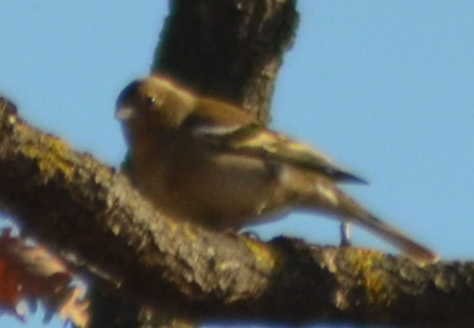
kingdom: Animalia
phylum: Chordata
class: Aves
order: Passeriformes
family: Fringillidae
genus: Fringilla
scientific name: Fringilla coelebs
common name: Common chaffinch
